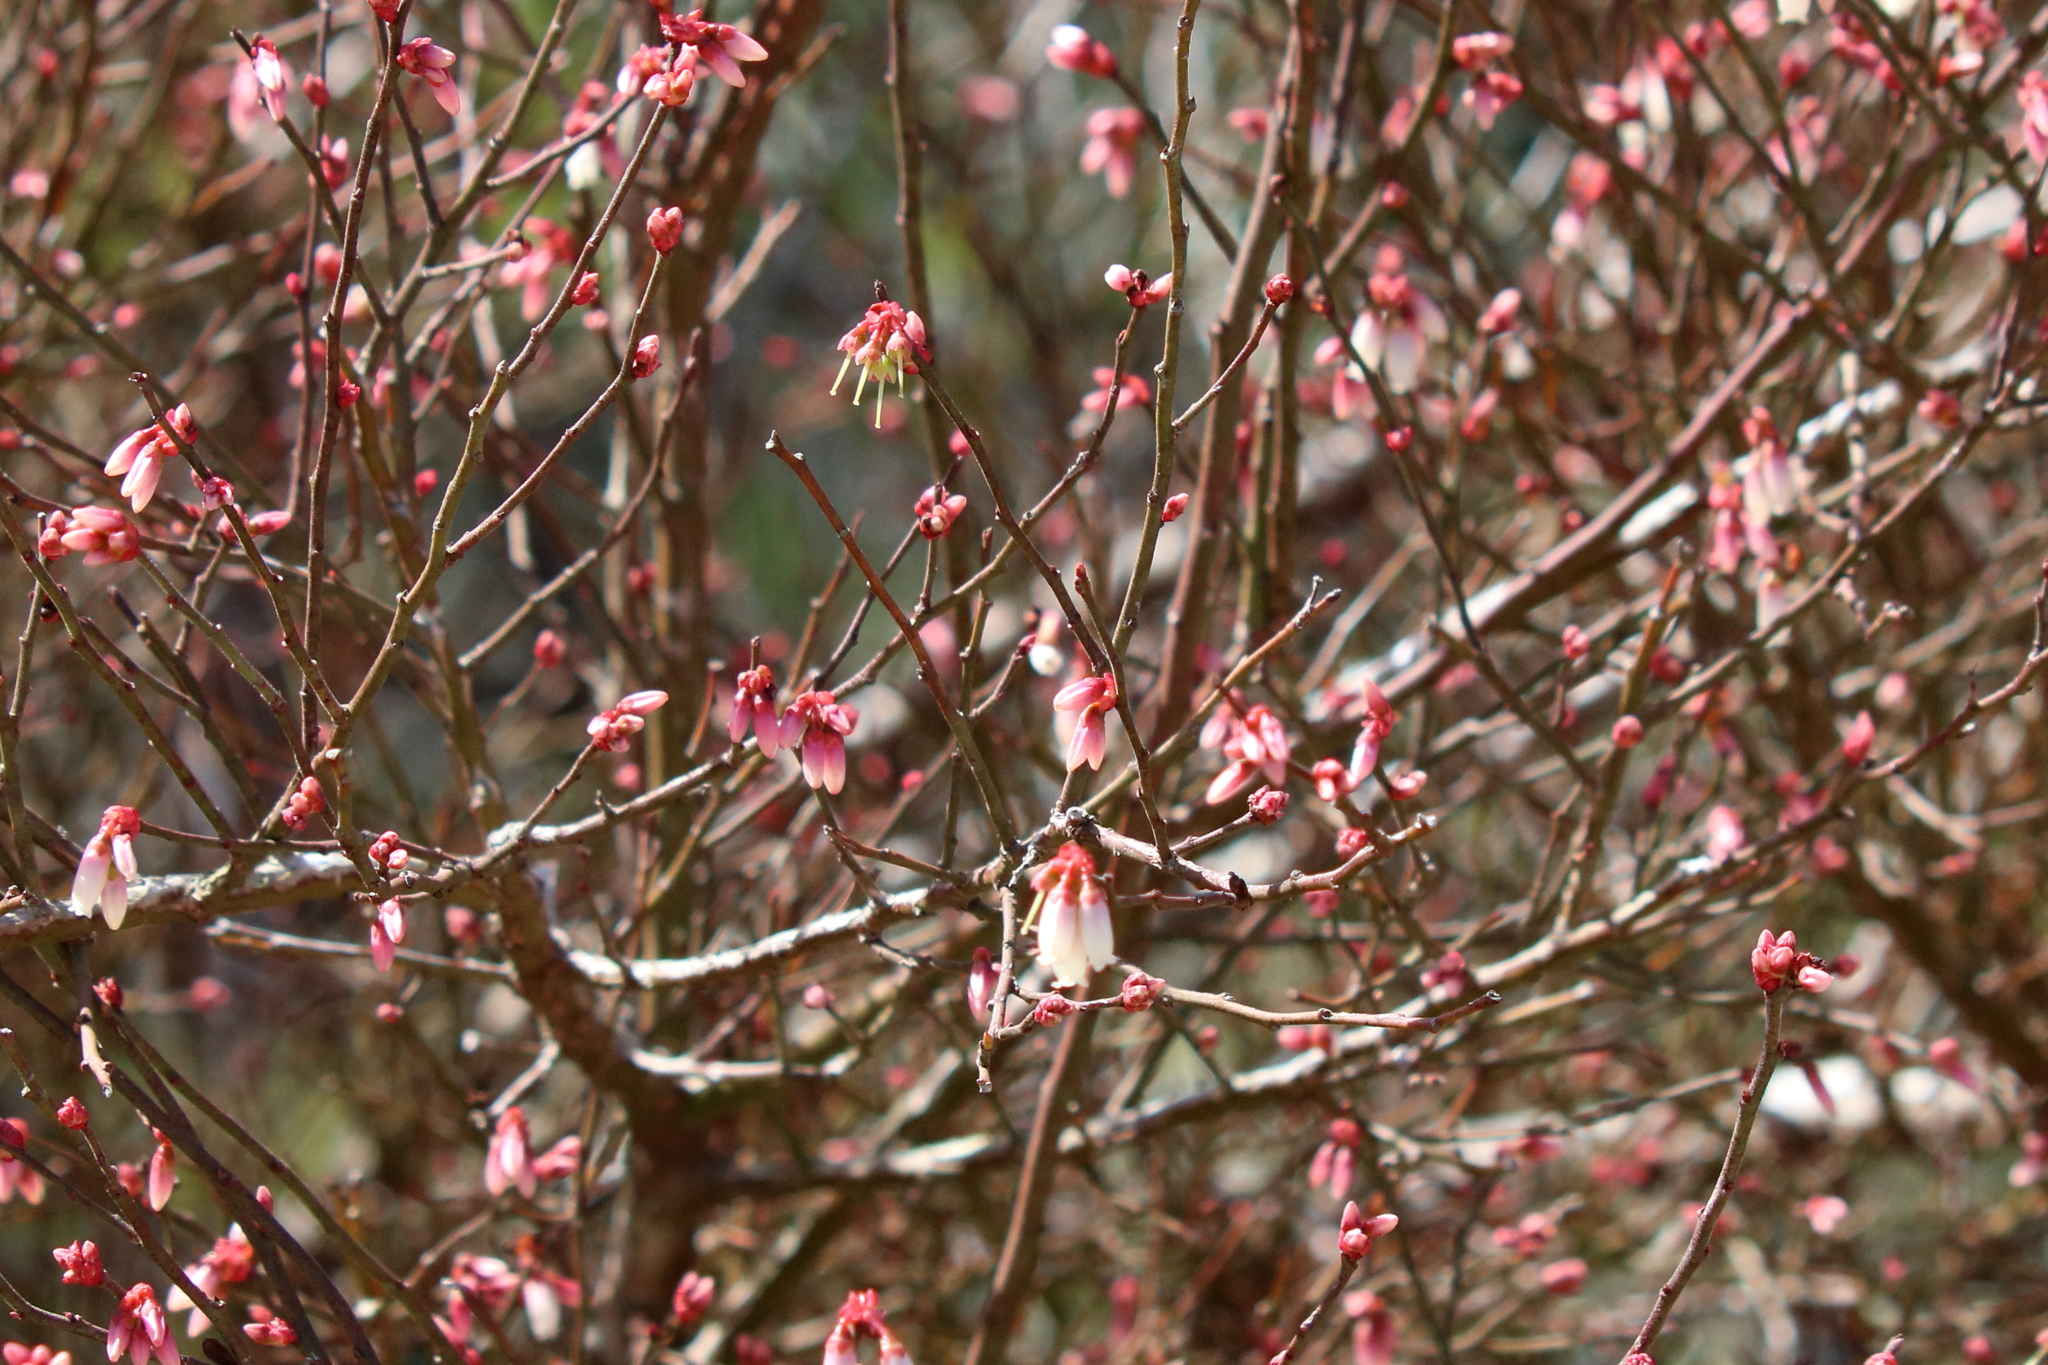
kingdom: Plantae
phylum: Tracheophyta
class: Magnoliopsida
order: Ericales
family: Ericaceae
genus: Vaccinium
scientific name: Vaccinium corymbosum
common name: Blueberry
